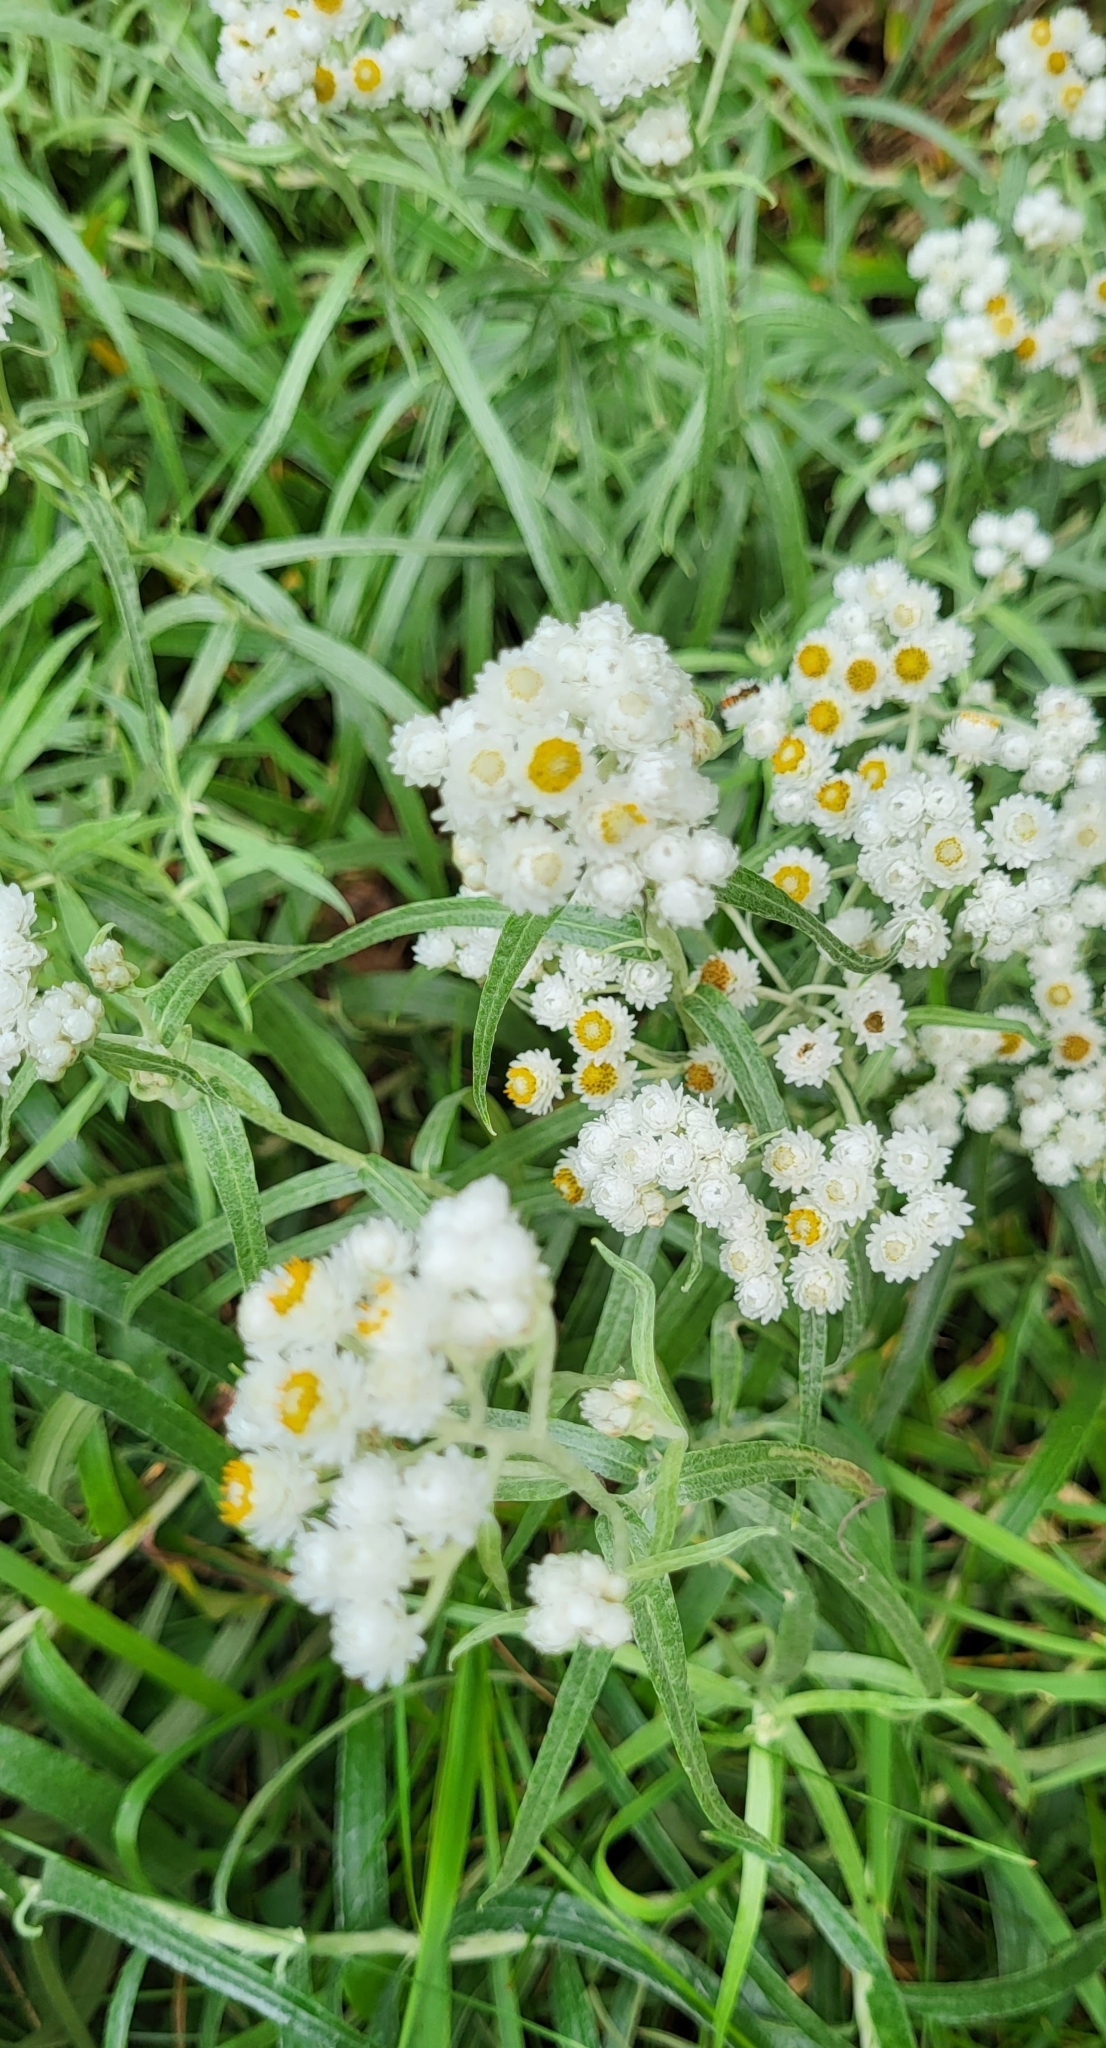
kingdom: Plantae
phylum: Tracheophyta
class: Magnoliopsida
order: Asterales
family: Asteraceae
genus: Anaphalis
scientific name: Anaphalis margaritacea
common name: Pearly everlasting
